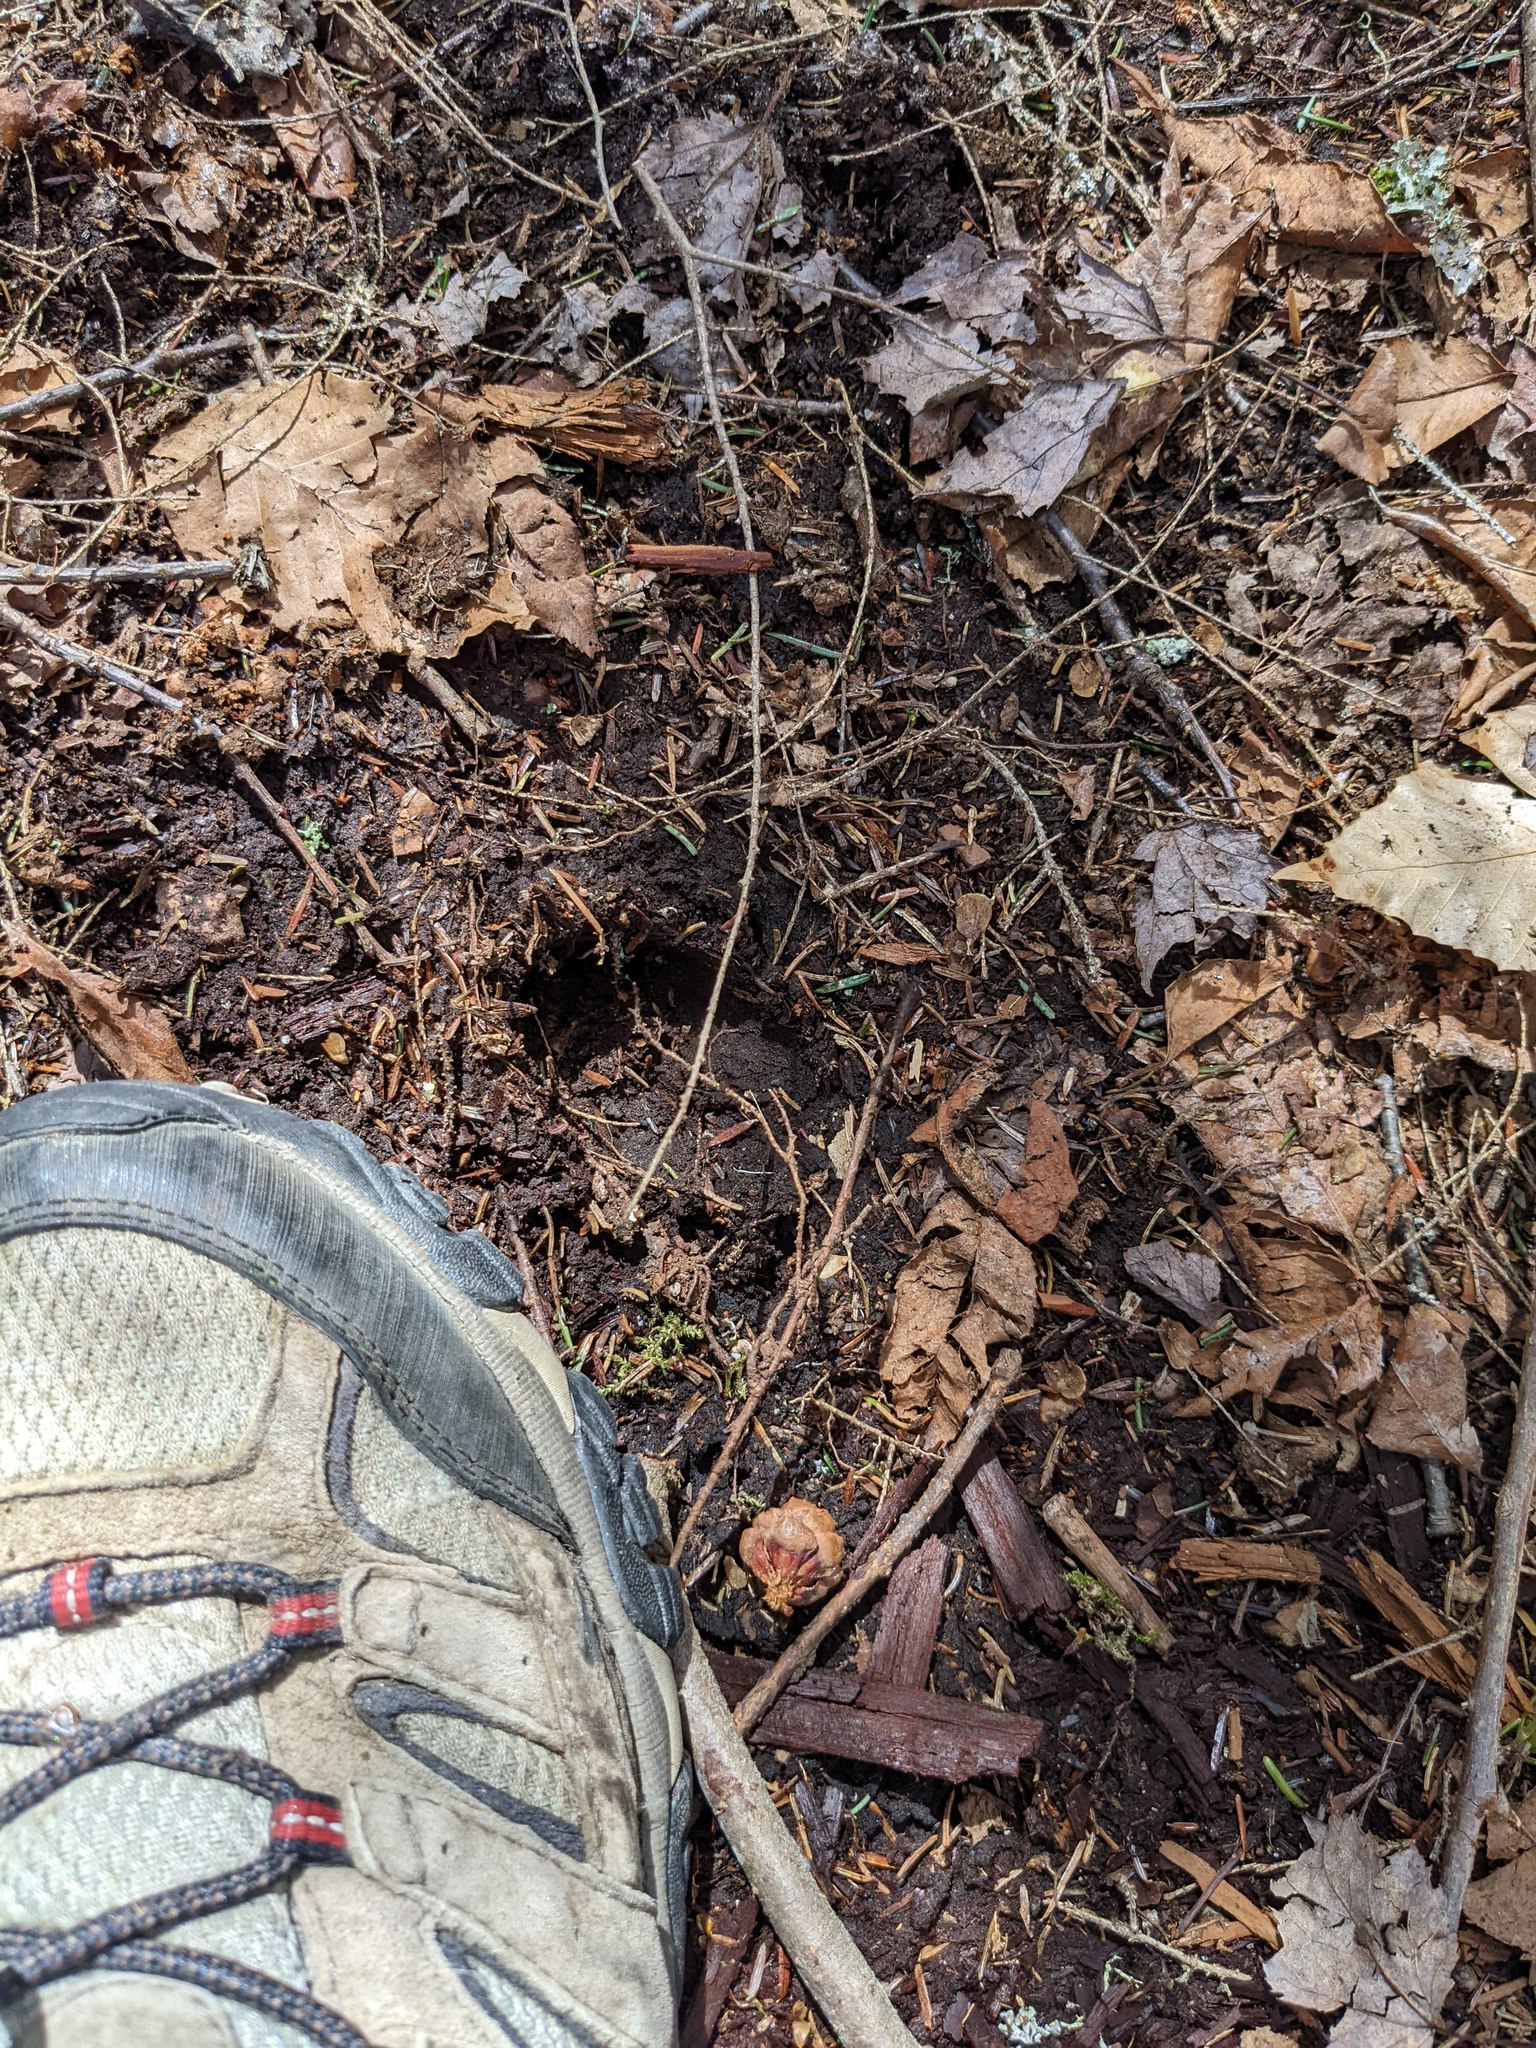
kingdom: Animalia
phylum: Chordata
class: Mammalia
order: Artiodactyla
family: Cervidae
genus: Odocoileus
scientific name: Odocoileus virginianus
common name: White-tailed deer
